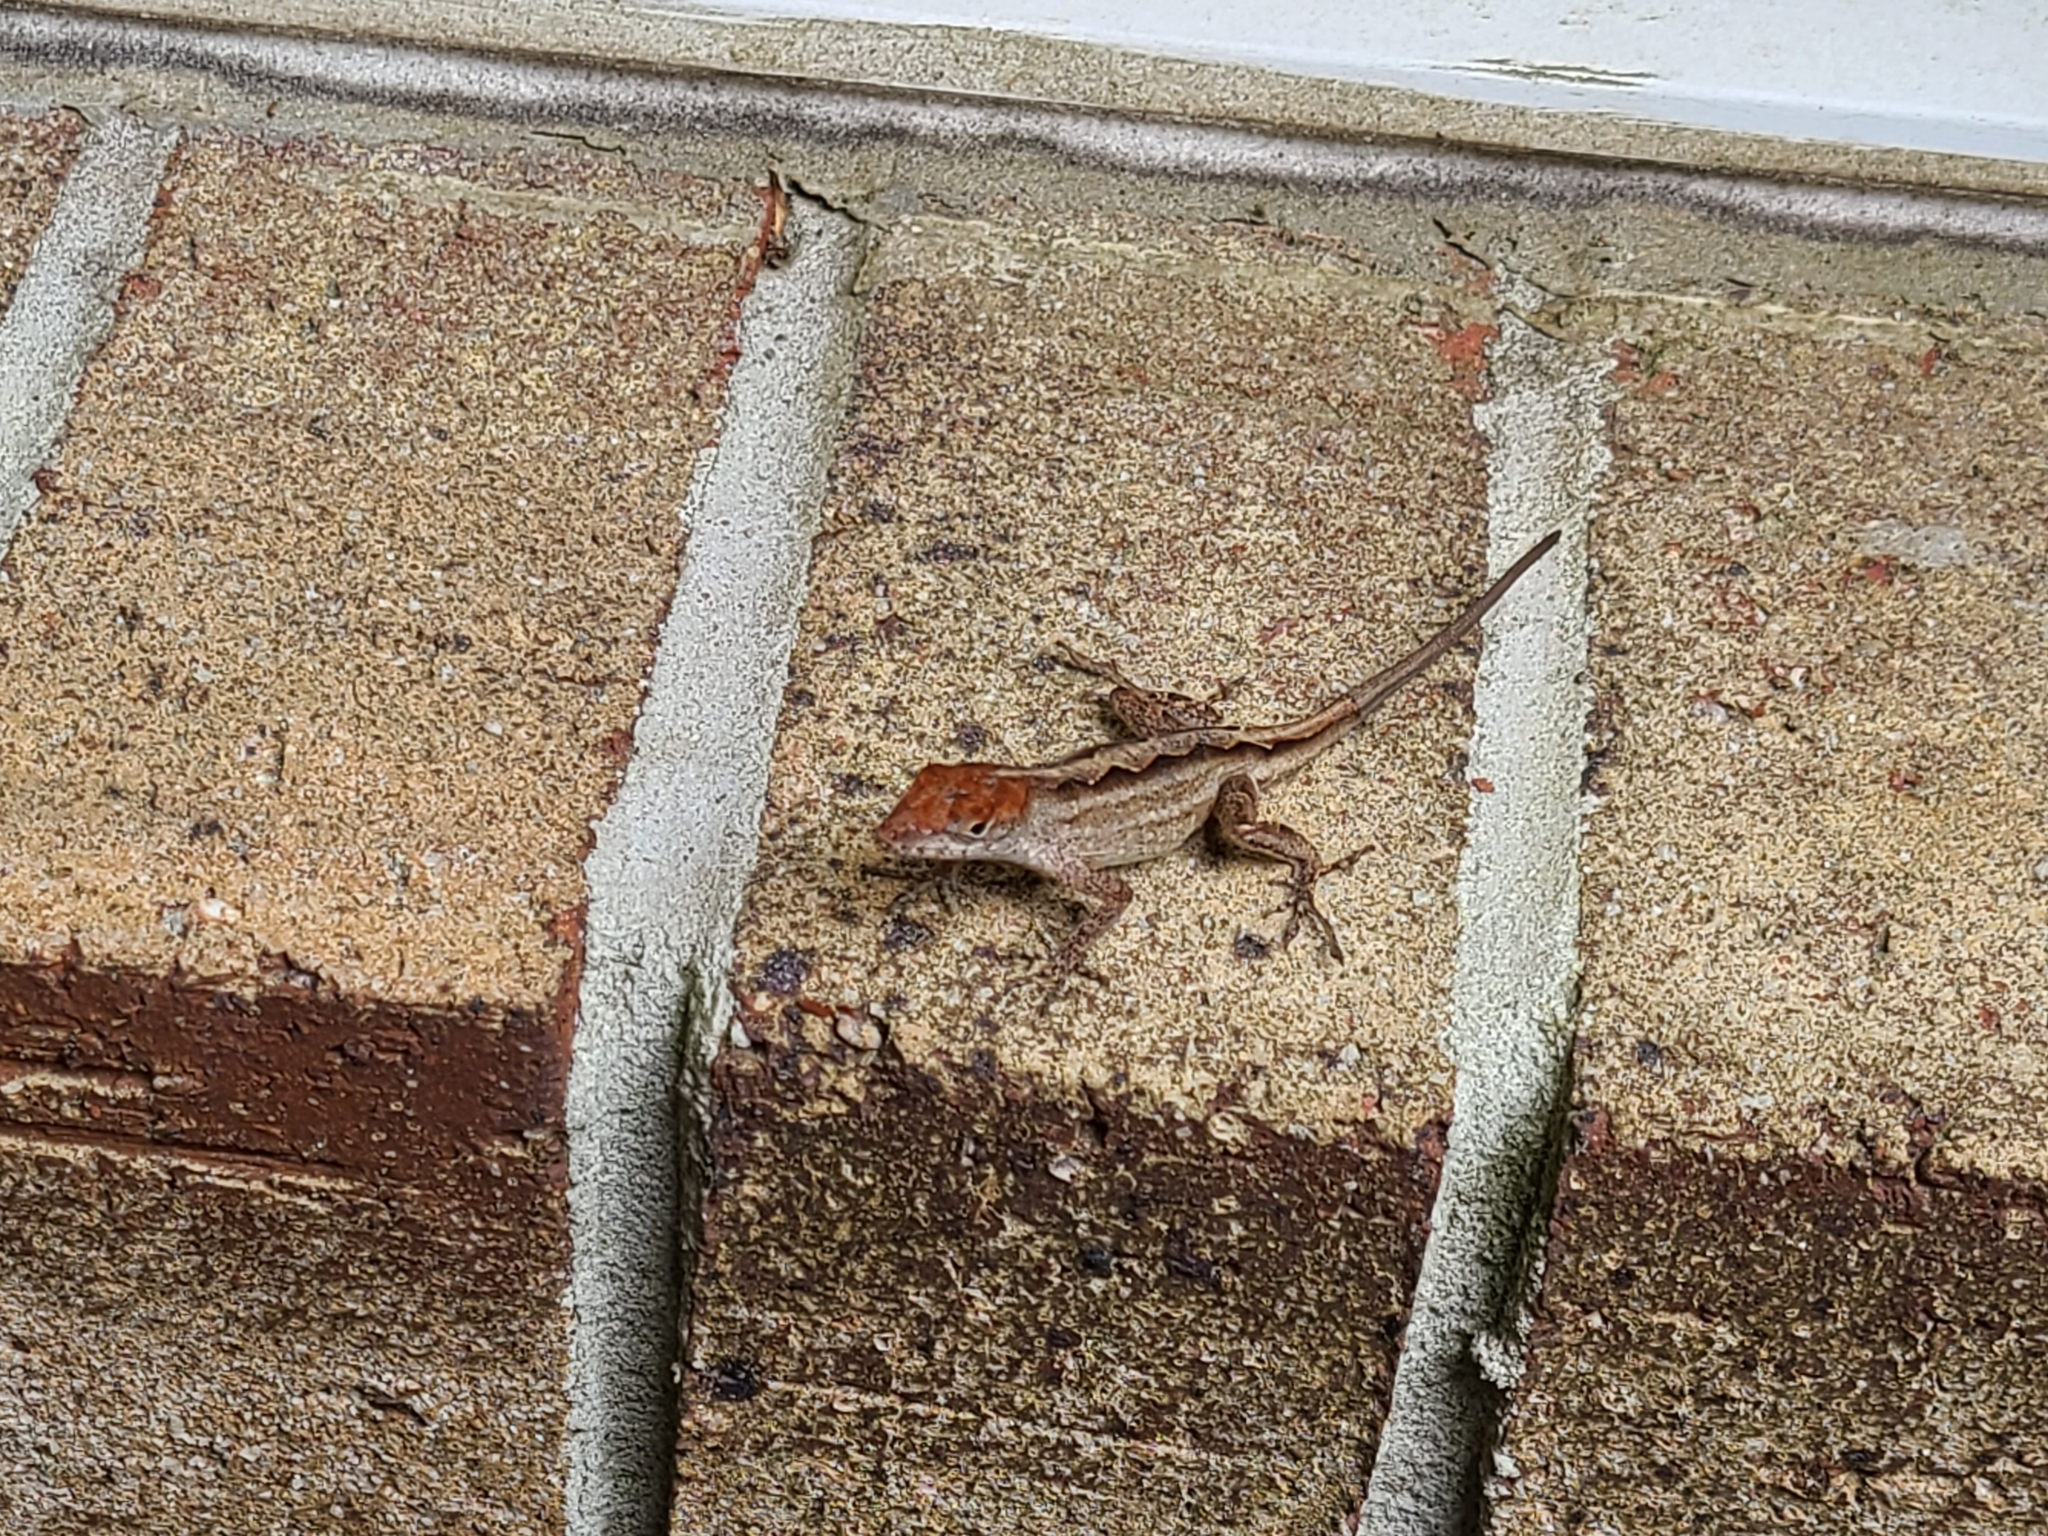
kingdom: Animalia
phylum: Chordata
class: Squamata
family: Dactyloidae
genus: Anolis
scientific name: Anolis sagrei
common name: Brown anole
